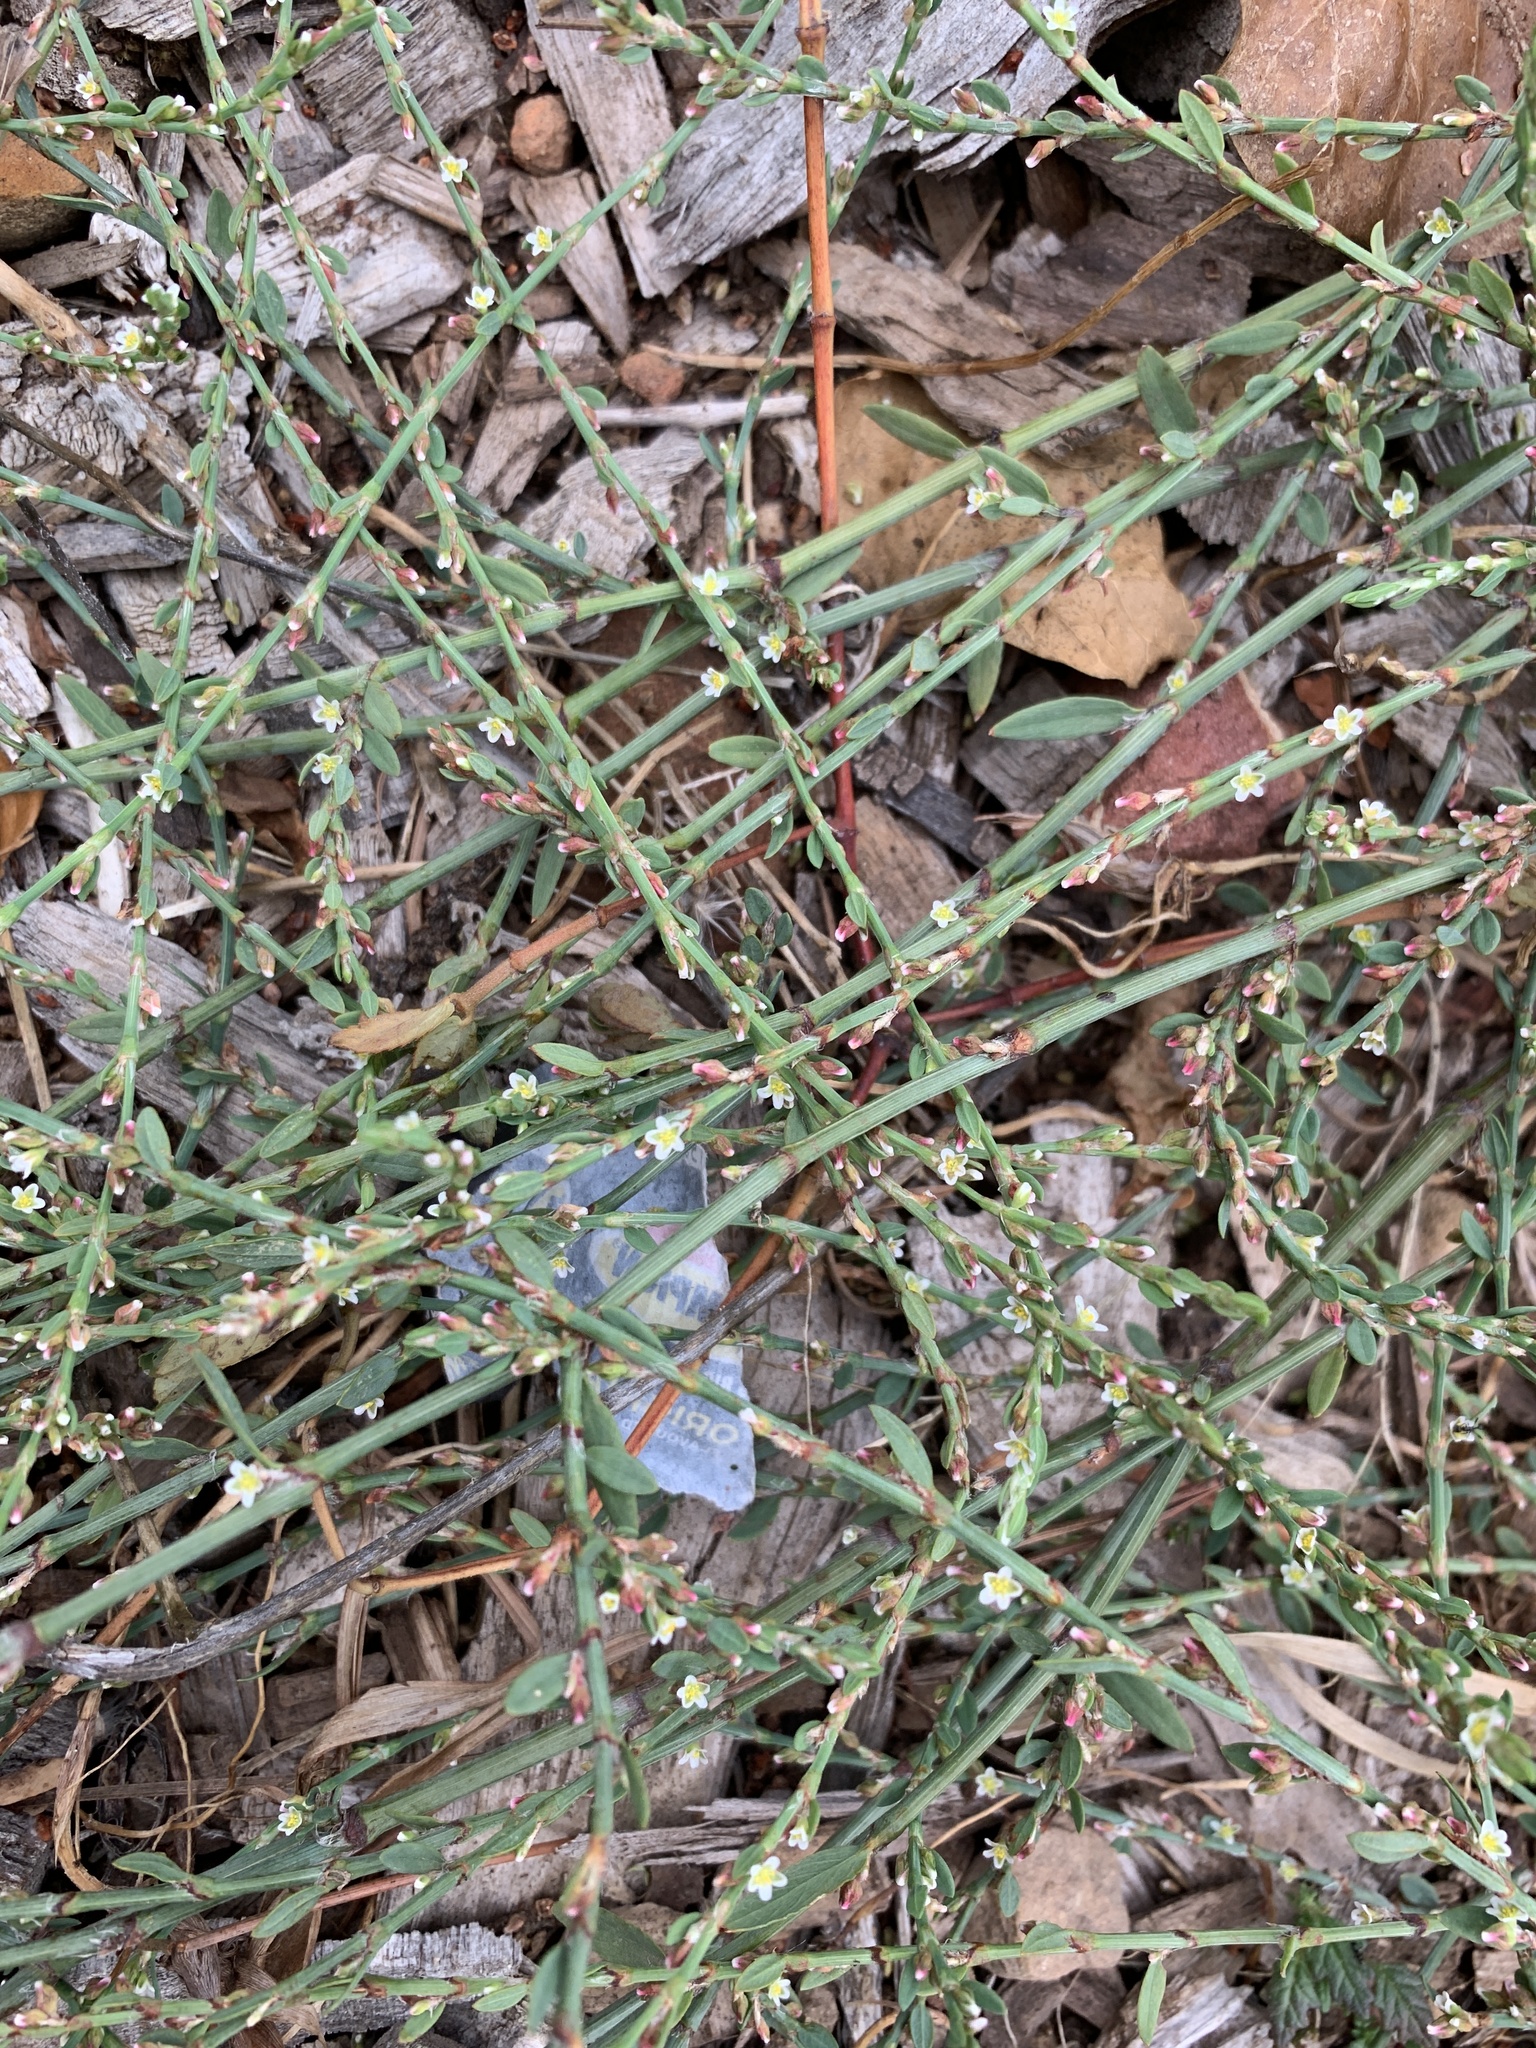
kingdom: Plantae
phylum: Tracheophyta
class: Magnoliopsida
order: Caryophyllales
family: Polygonaceae
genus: Polygonum
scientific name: Polygonum aviculare
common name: Prostrate knotweed
